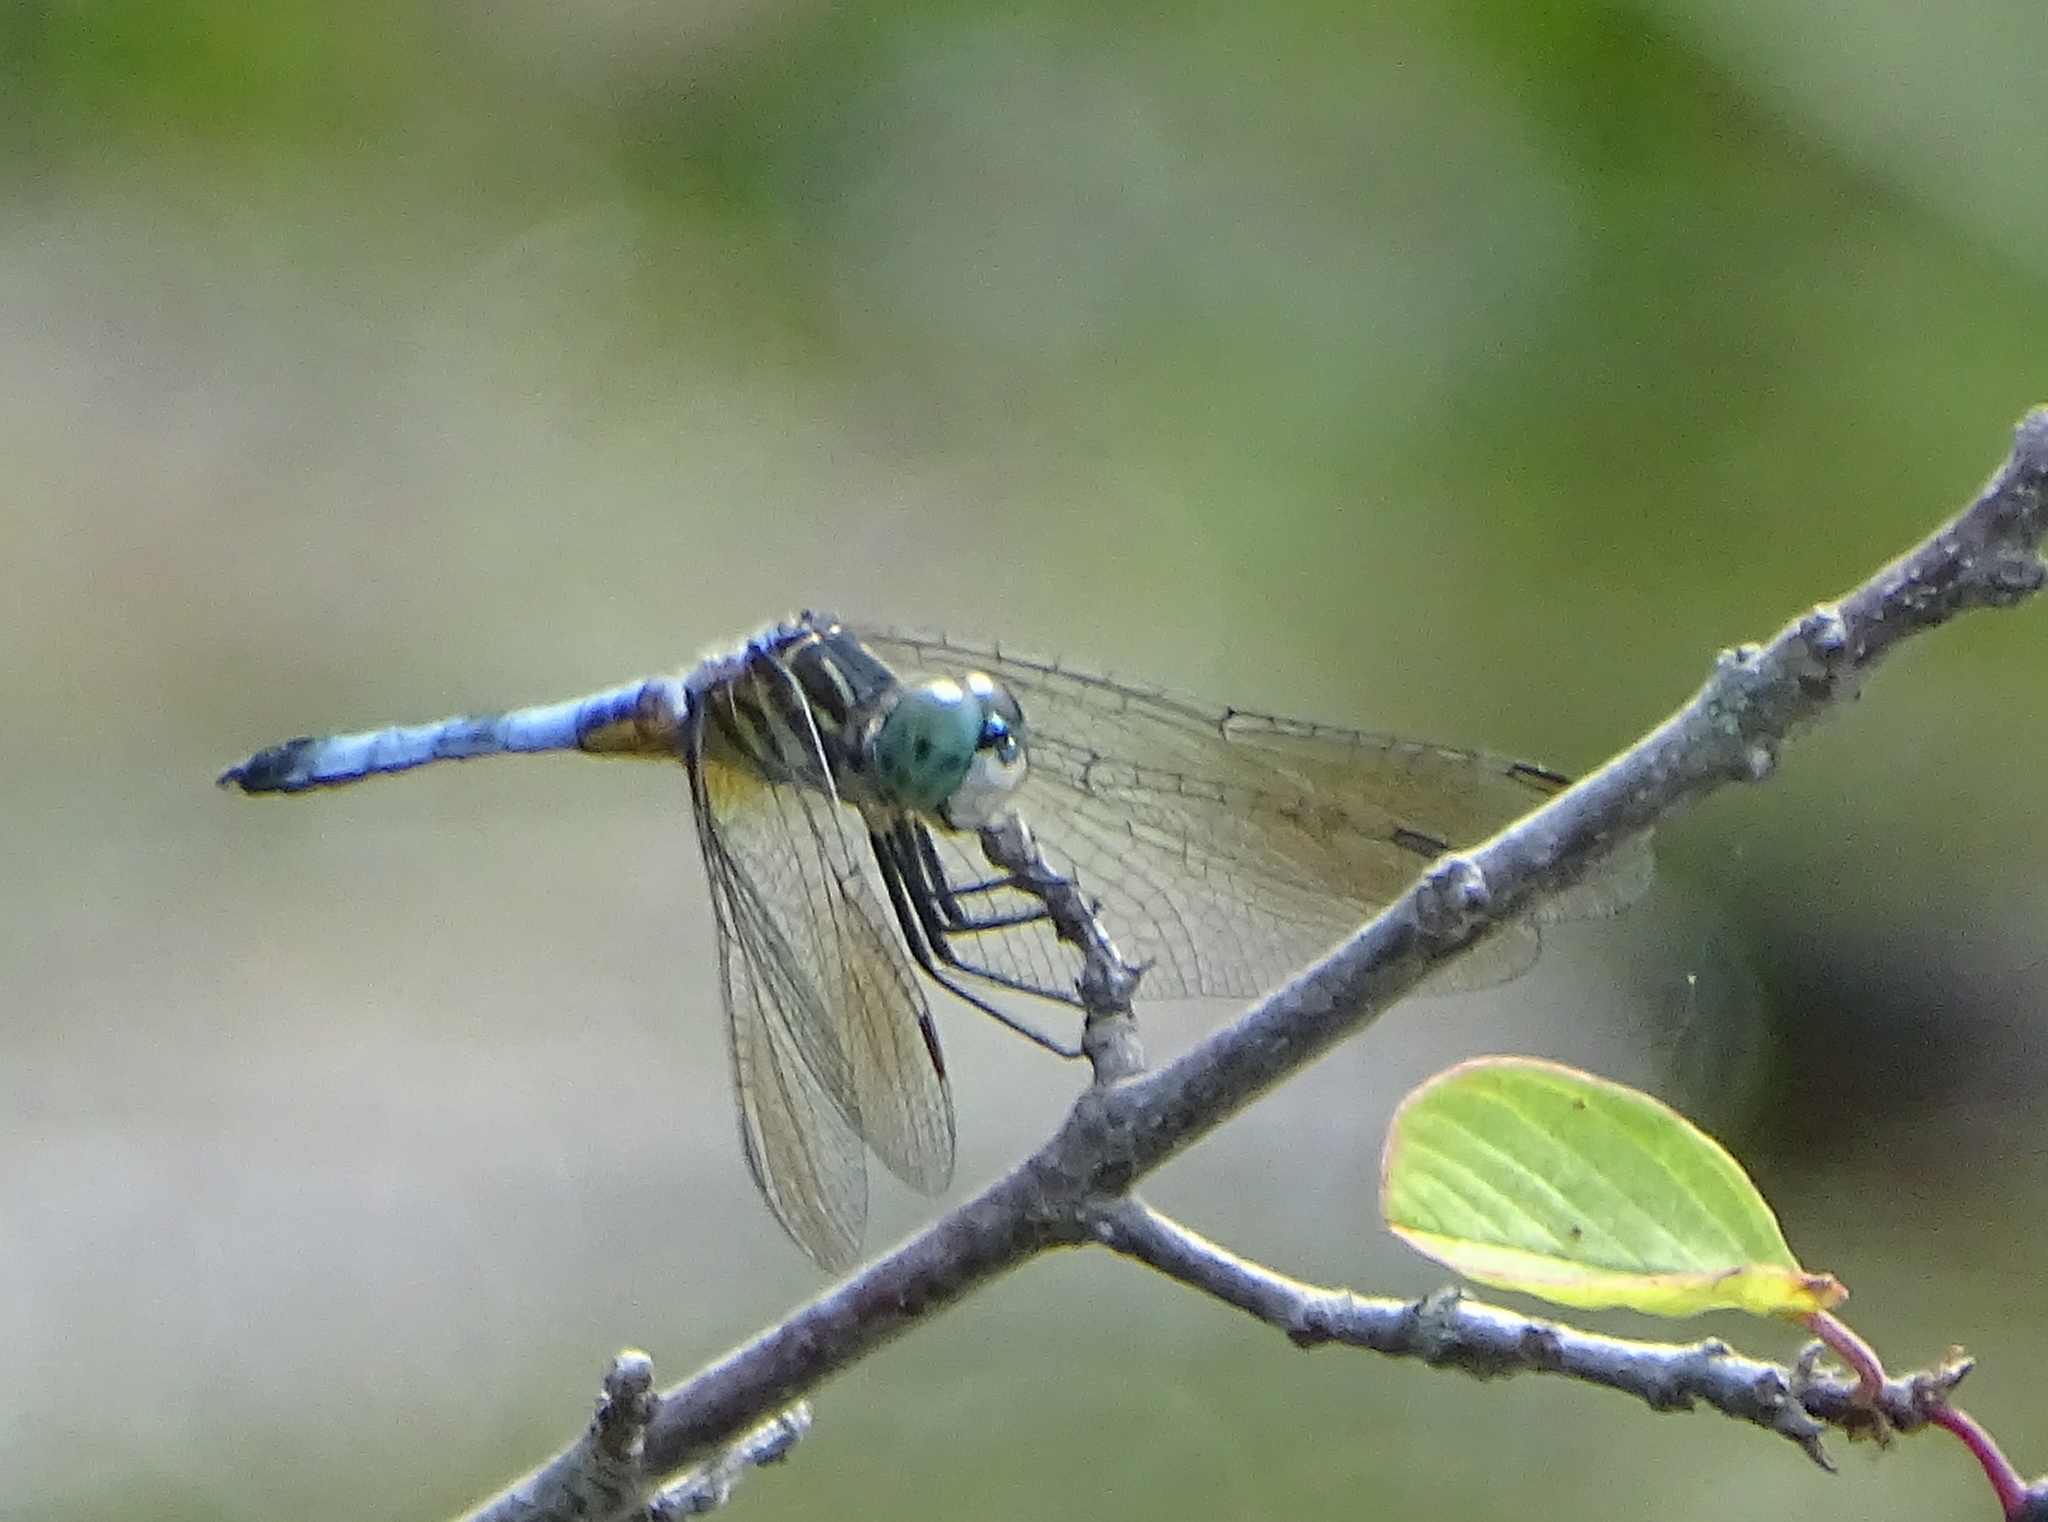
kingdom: Animalia
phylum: Arthropoda
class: Insecta
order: Odonata
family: Libellulidae
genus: Pachydiplax
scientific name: Pachydiplax longipennis
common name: Blue dasher
